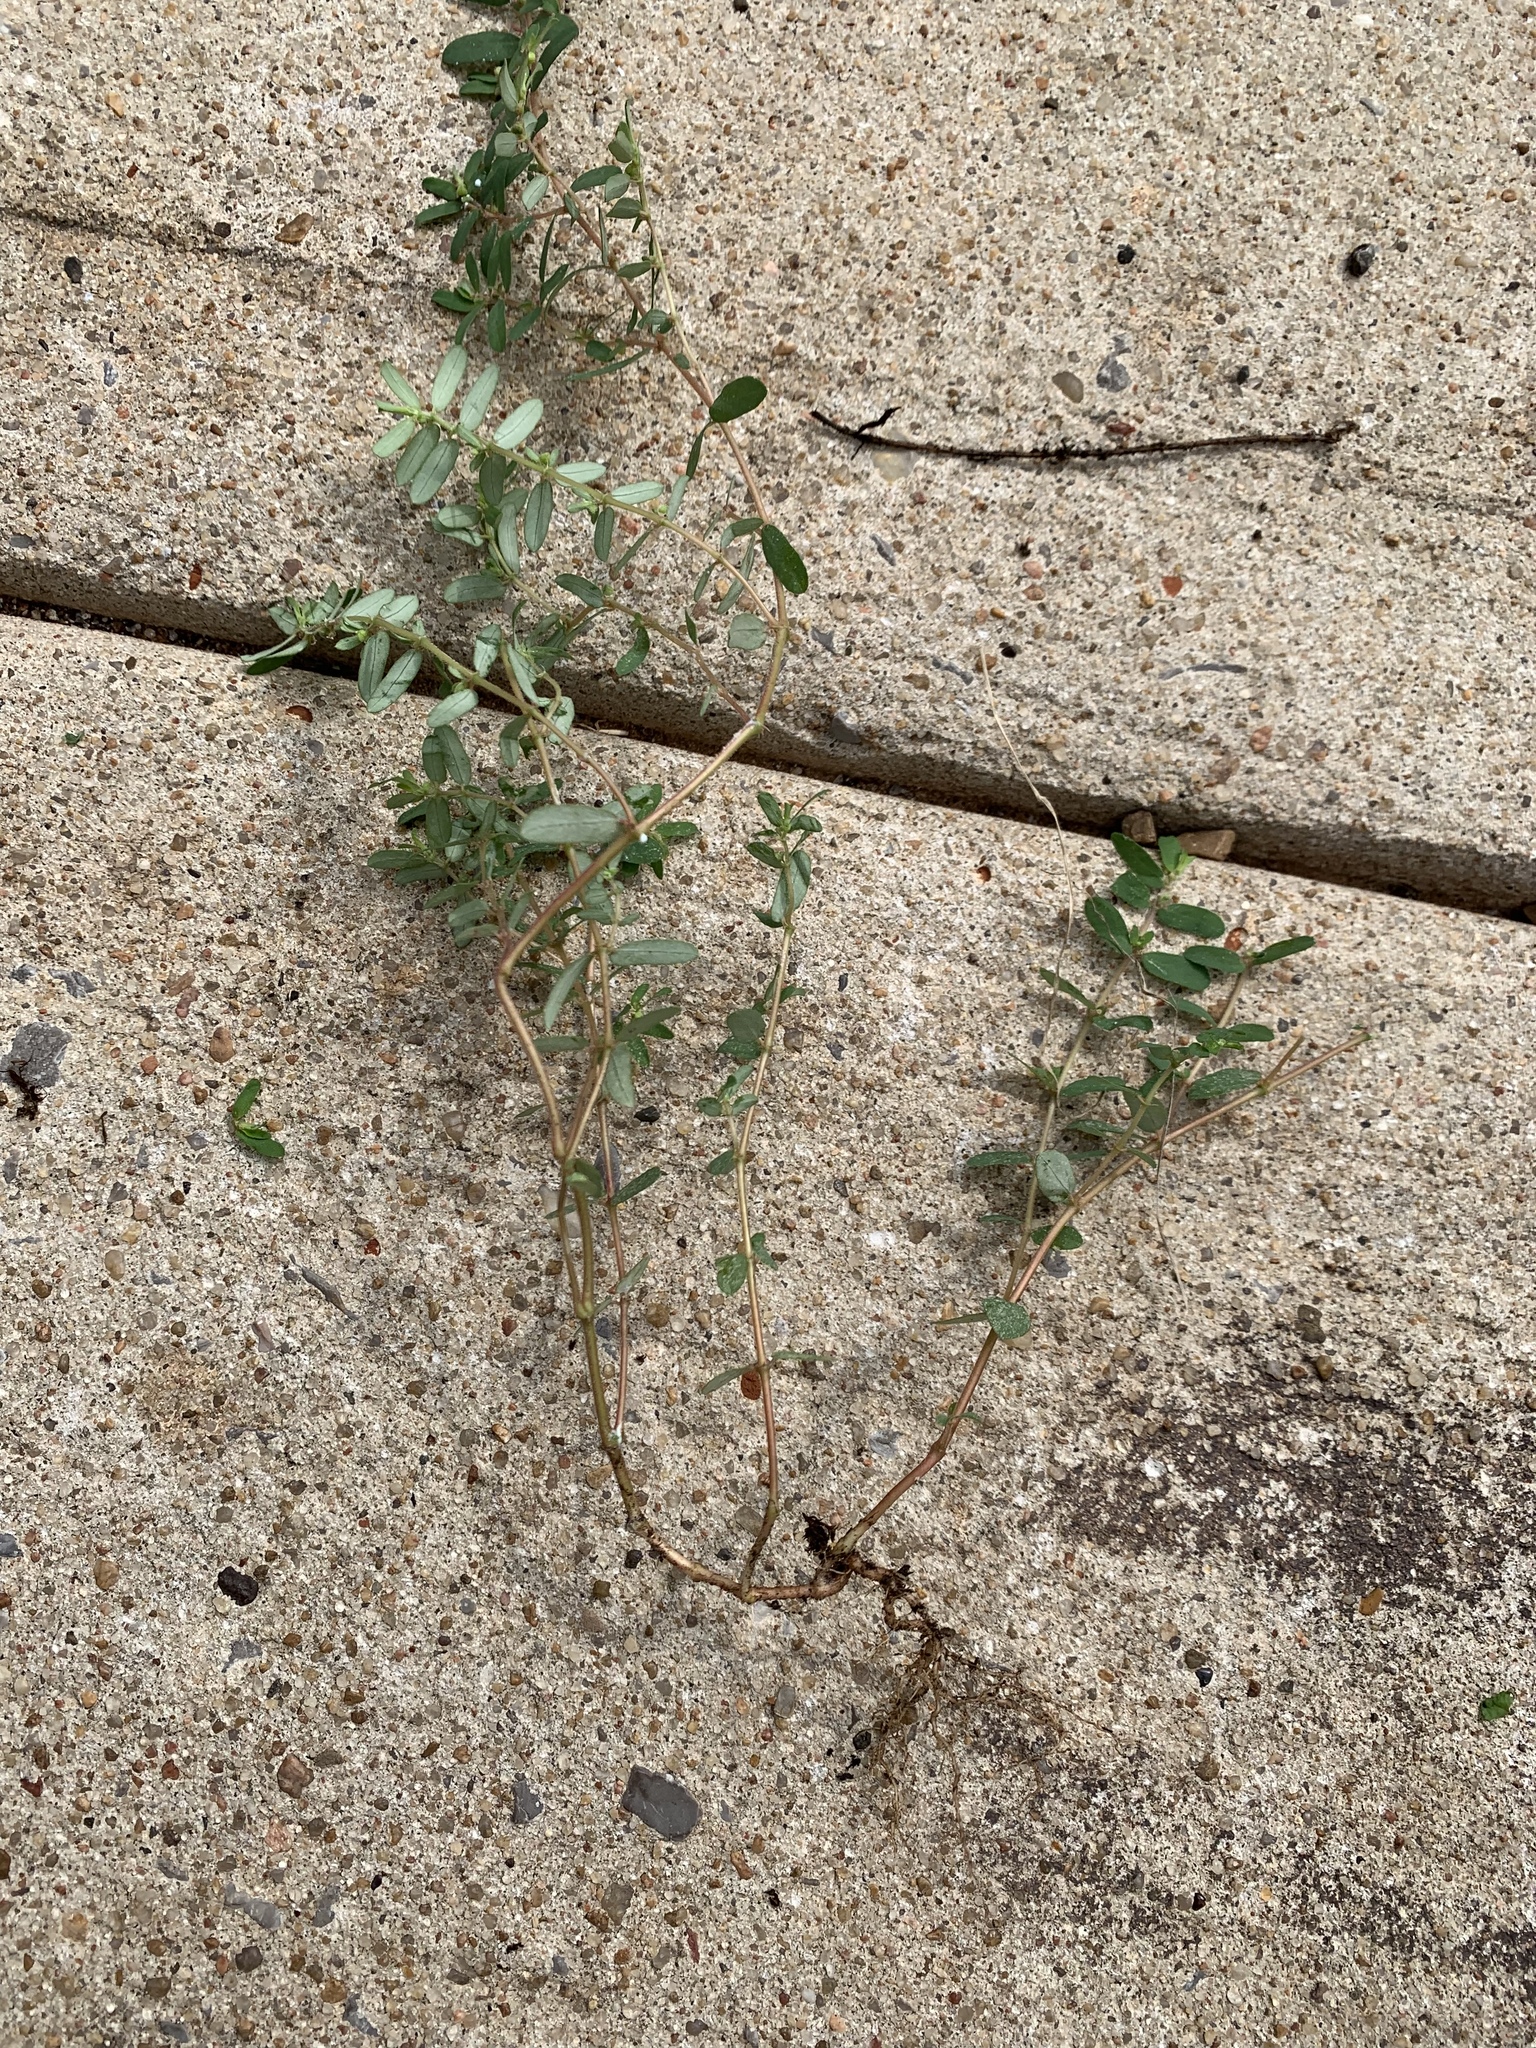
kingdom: Plantae
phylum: Tracheophyta
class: Magnoliopsida
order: Malpighiales
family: Euphorbiaceae
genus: Euphorbia
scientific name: Euphorbia maculata
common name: Spotted spurge
